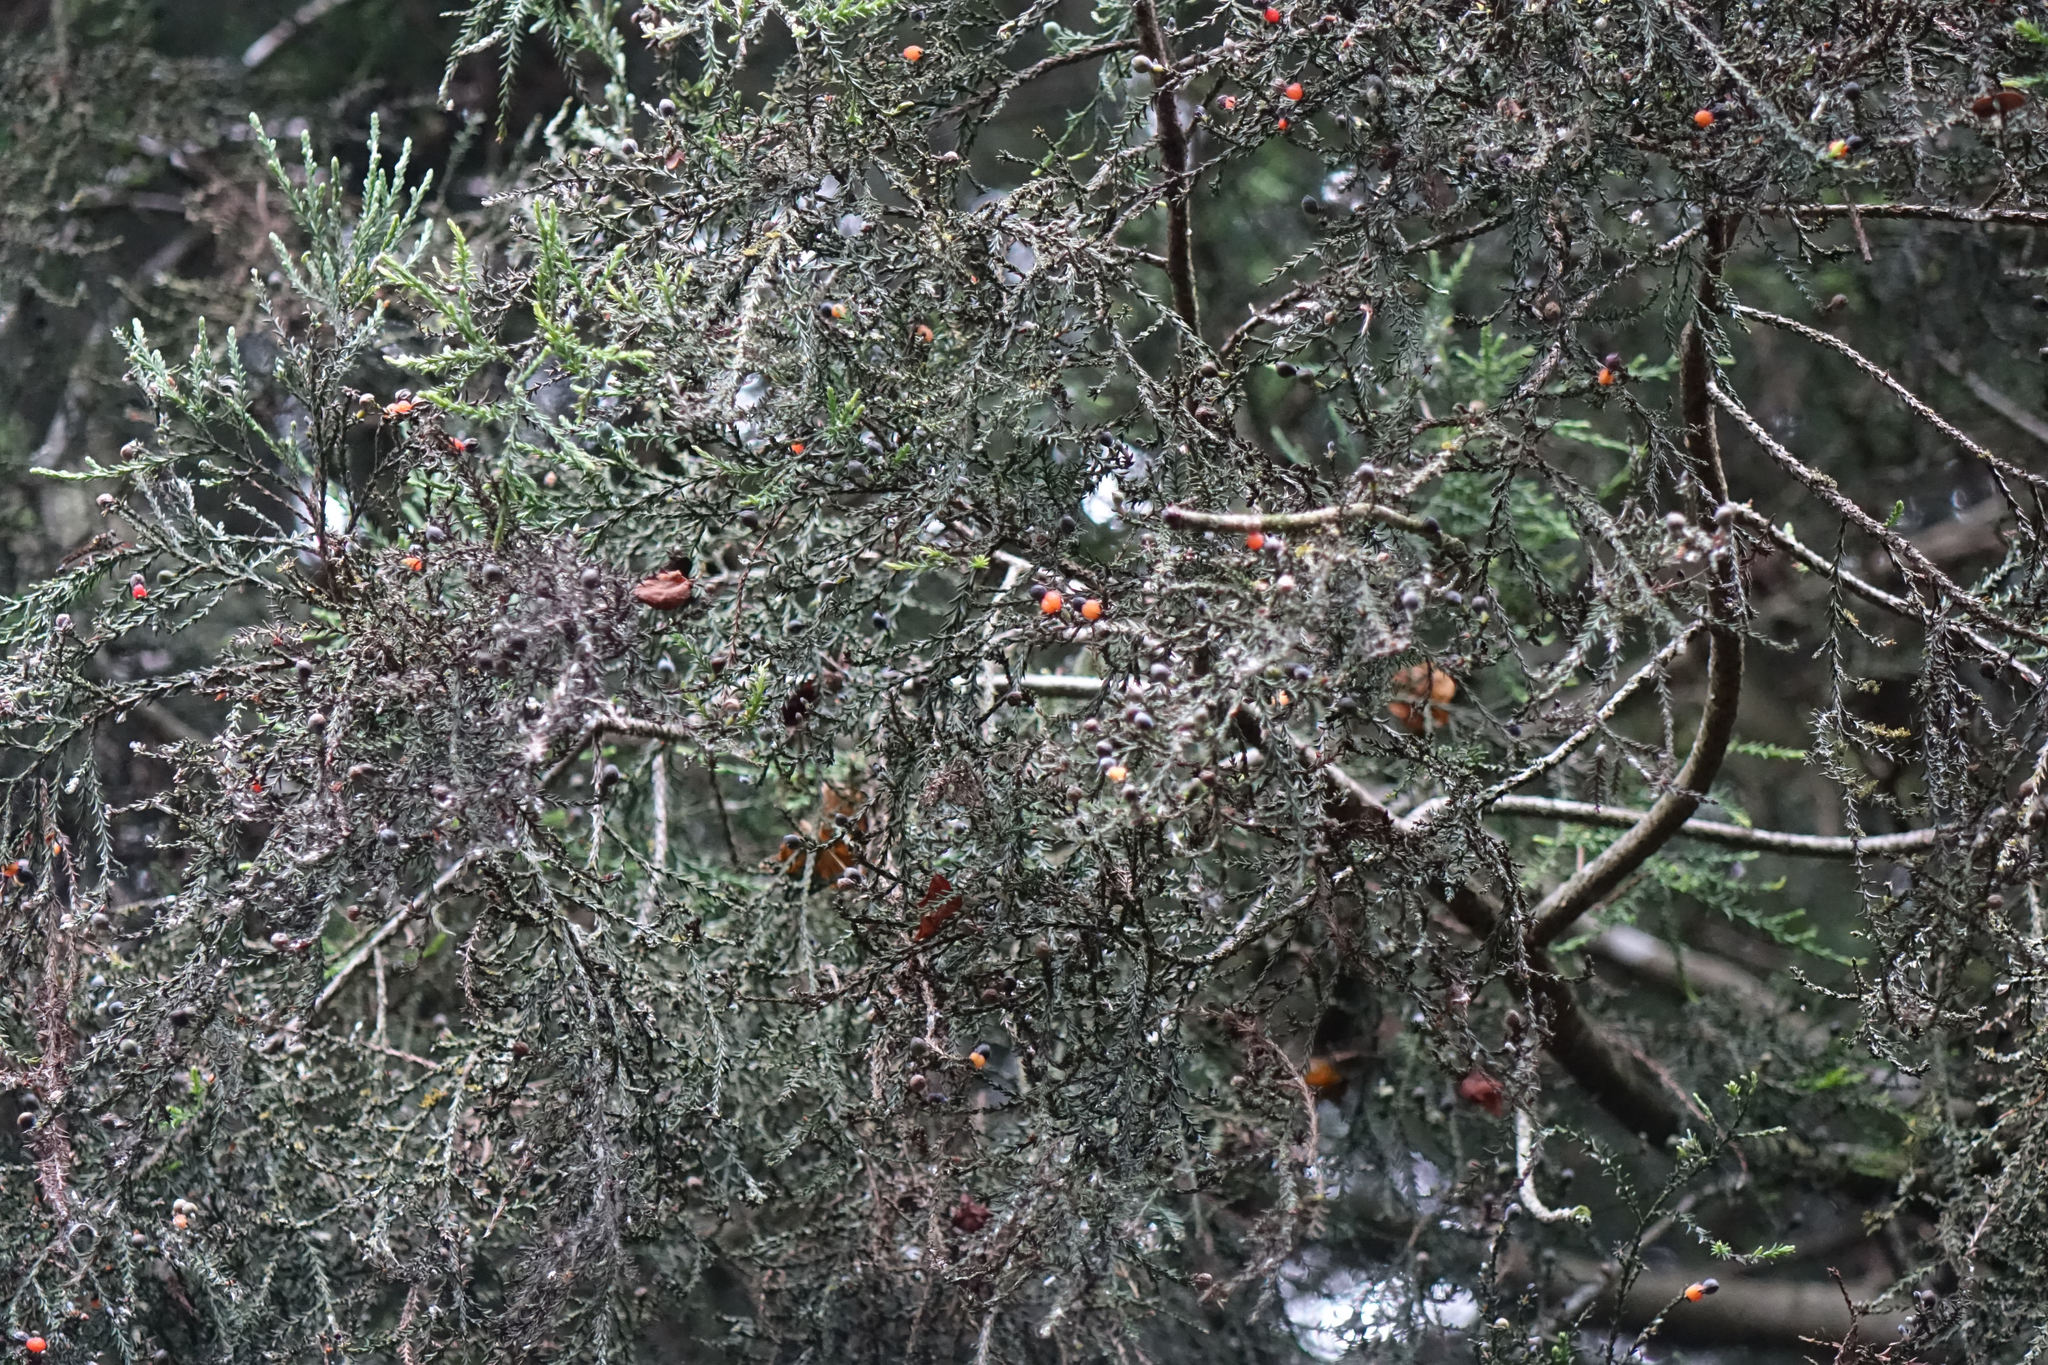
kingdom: Plantae
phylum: Tracheophyta
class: Pinopsida
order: Pinales
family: Podocarpaceae
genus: Dacrycarpus
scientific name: Dacrycarpus dacrydioides
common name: White pine
